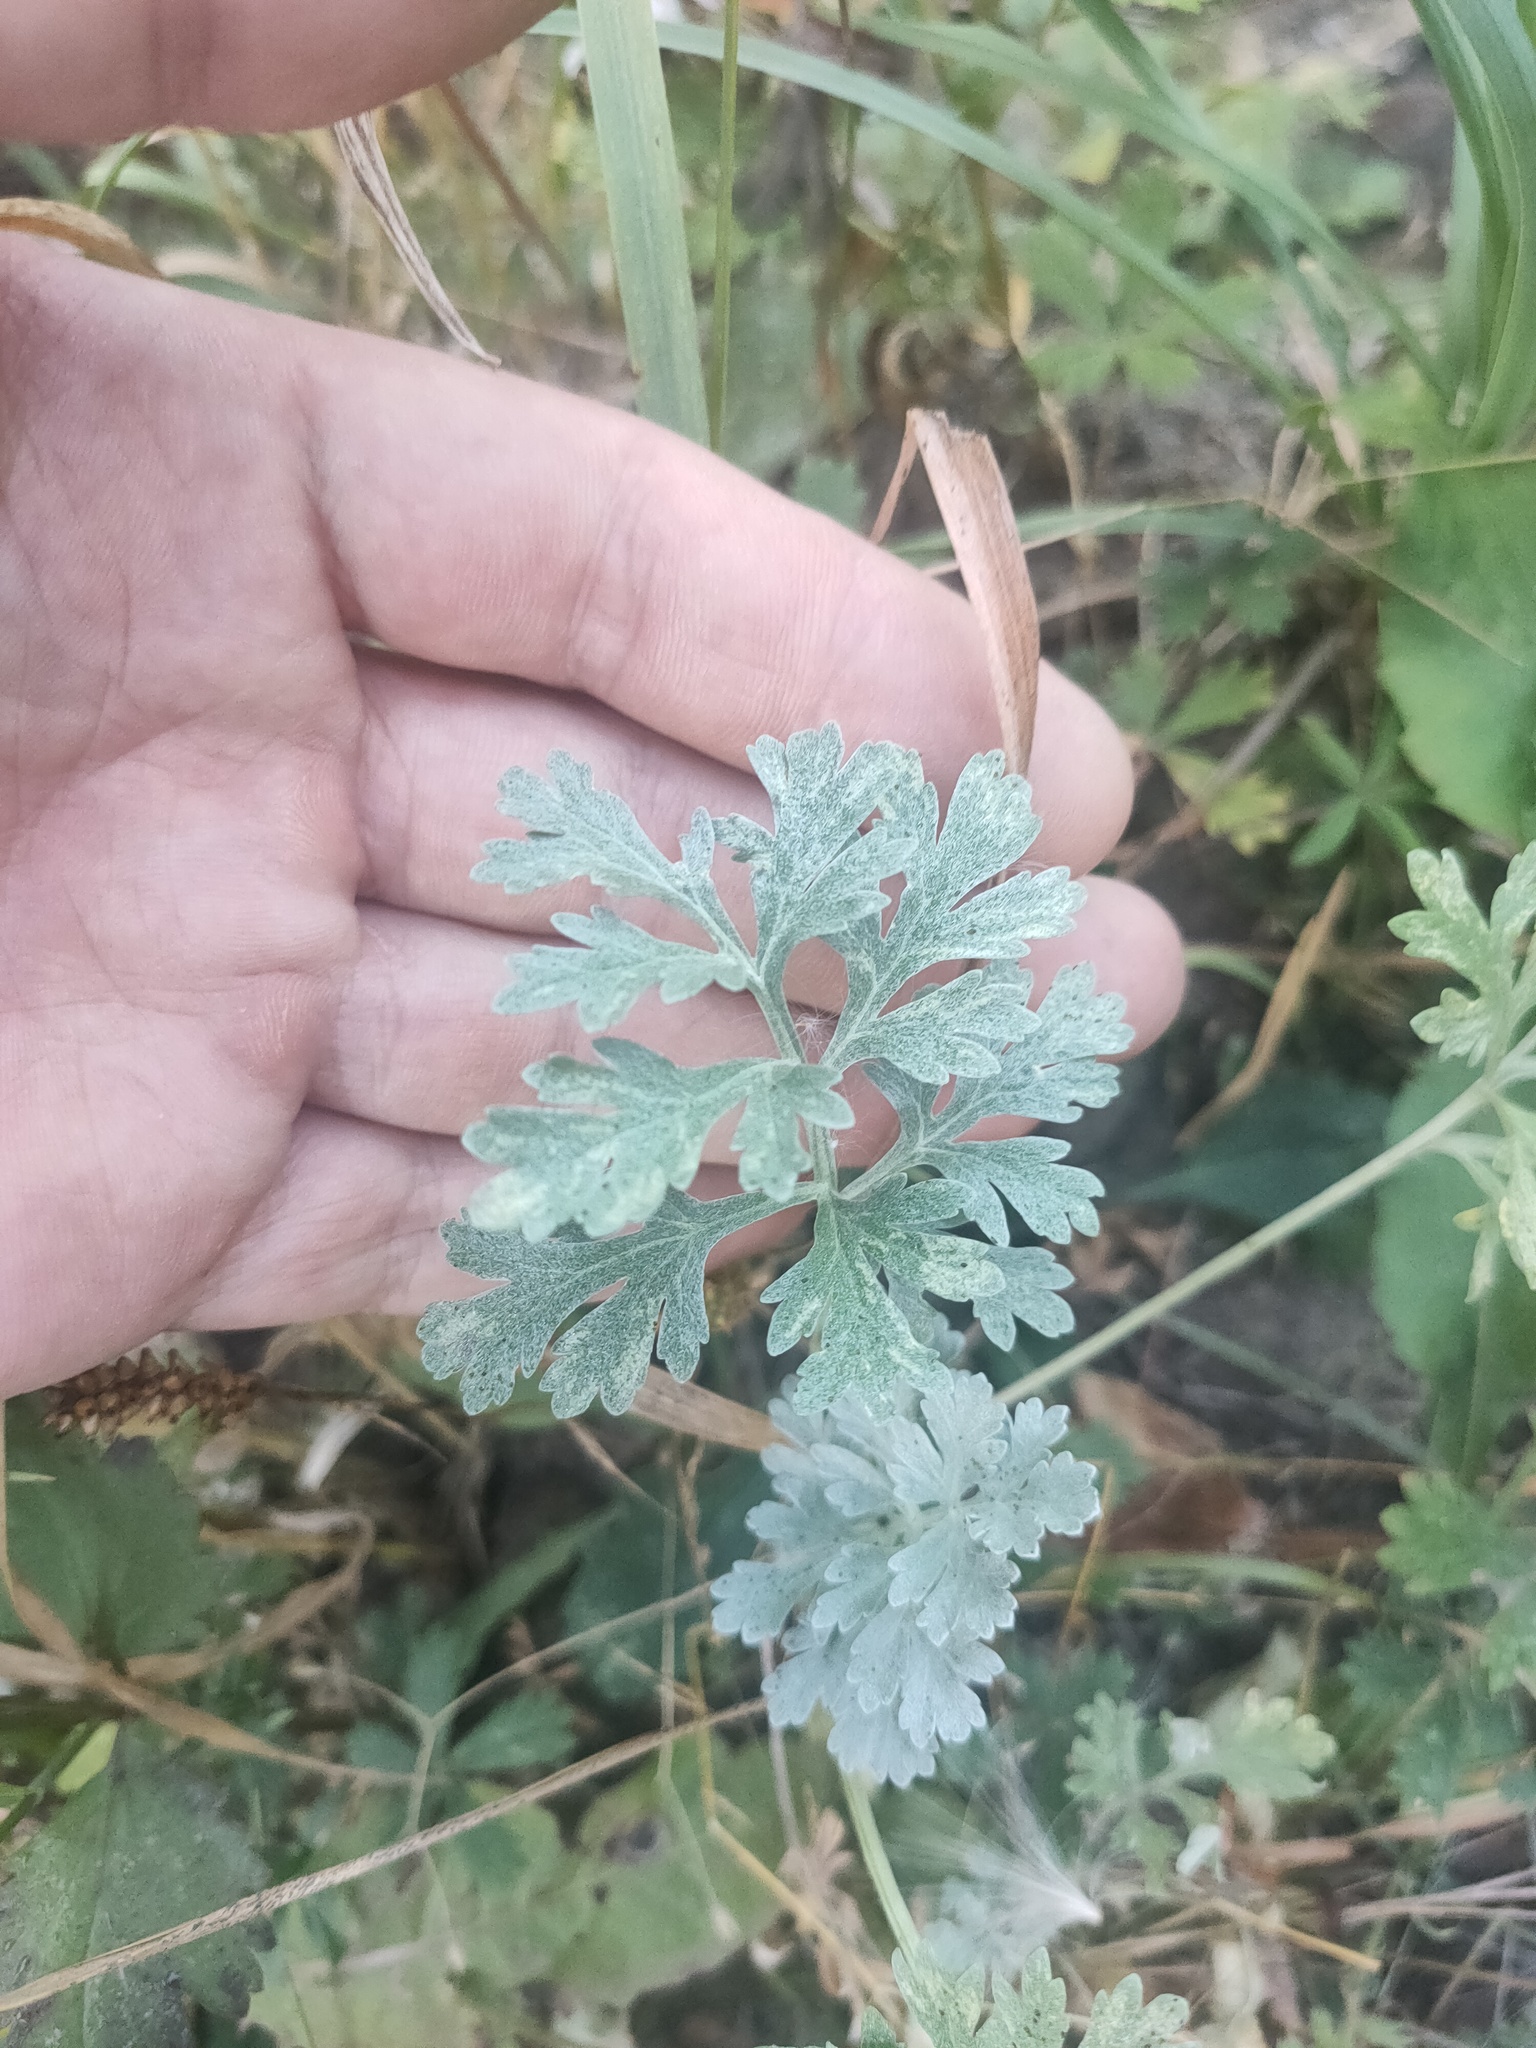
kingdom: Plantae
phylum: Tracheophyta
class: Magnoliopsida
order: Asterales
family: Asteraceae
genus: Artemisia
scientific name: Artemisia absinthium
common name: Wormwood
